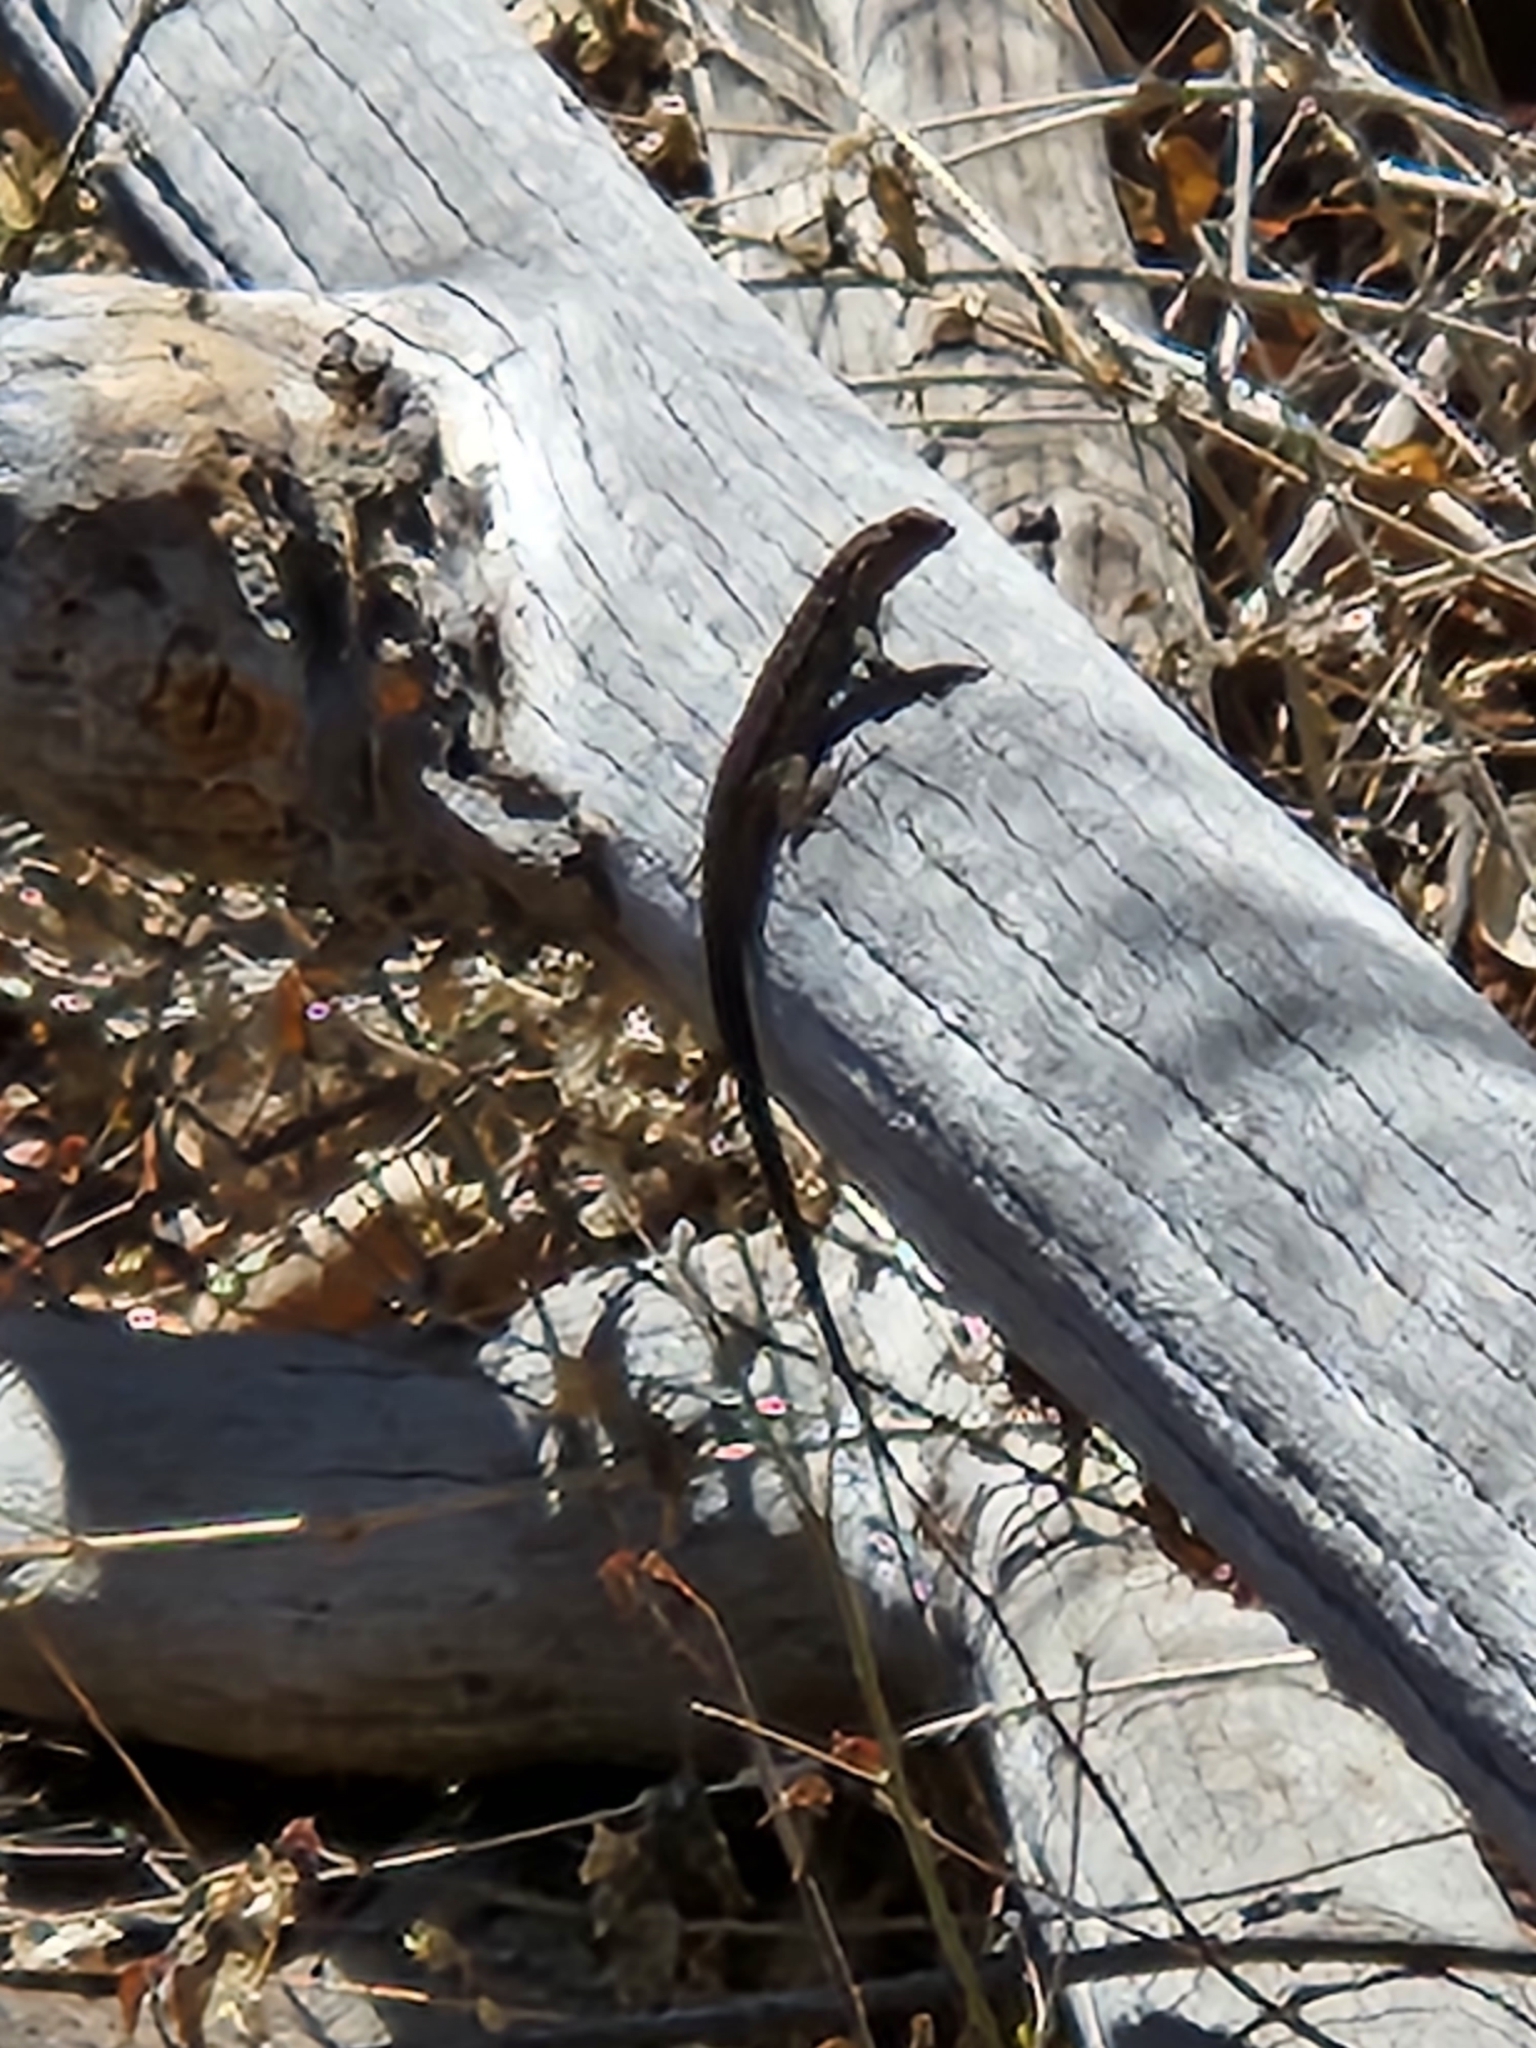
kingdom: Animalia
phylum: Chordata
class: Squamata
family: Phrynosomatidae
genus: Urosaurus
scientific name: Urosaurus nigricauda
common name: Baja california brush lizard
